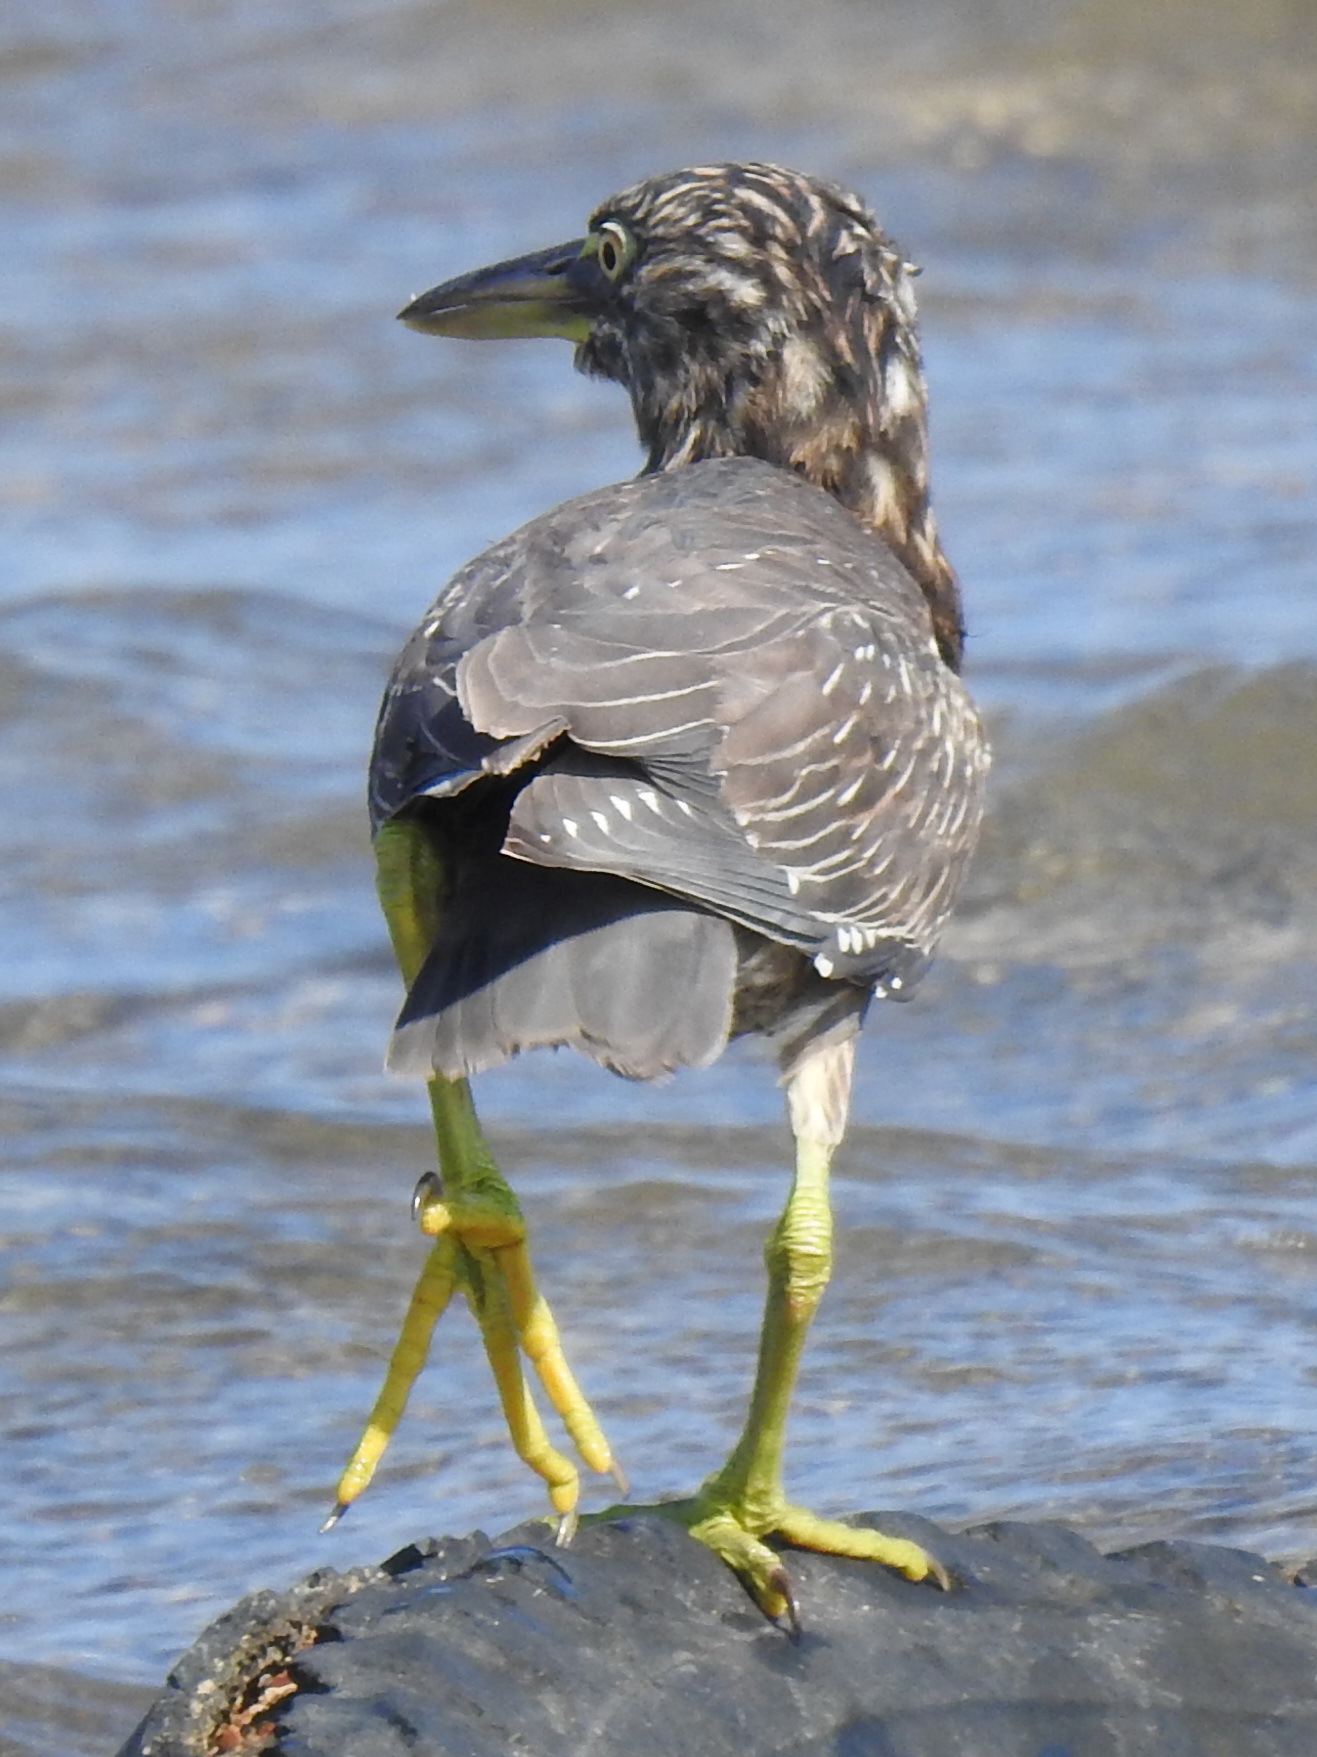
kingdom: Animalia
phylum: Chordata
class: Aves
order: Pelecaniformes
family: Ardeidae
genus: Butorides
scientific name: Butorides striata
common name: Striated heron
